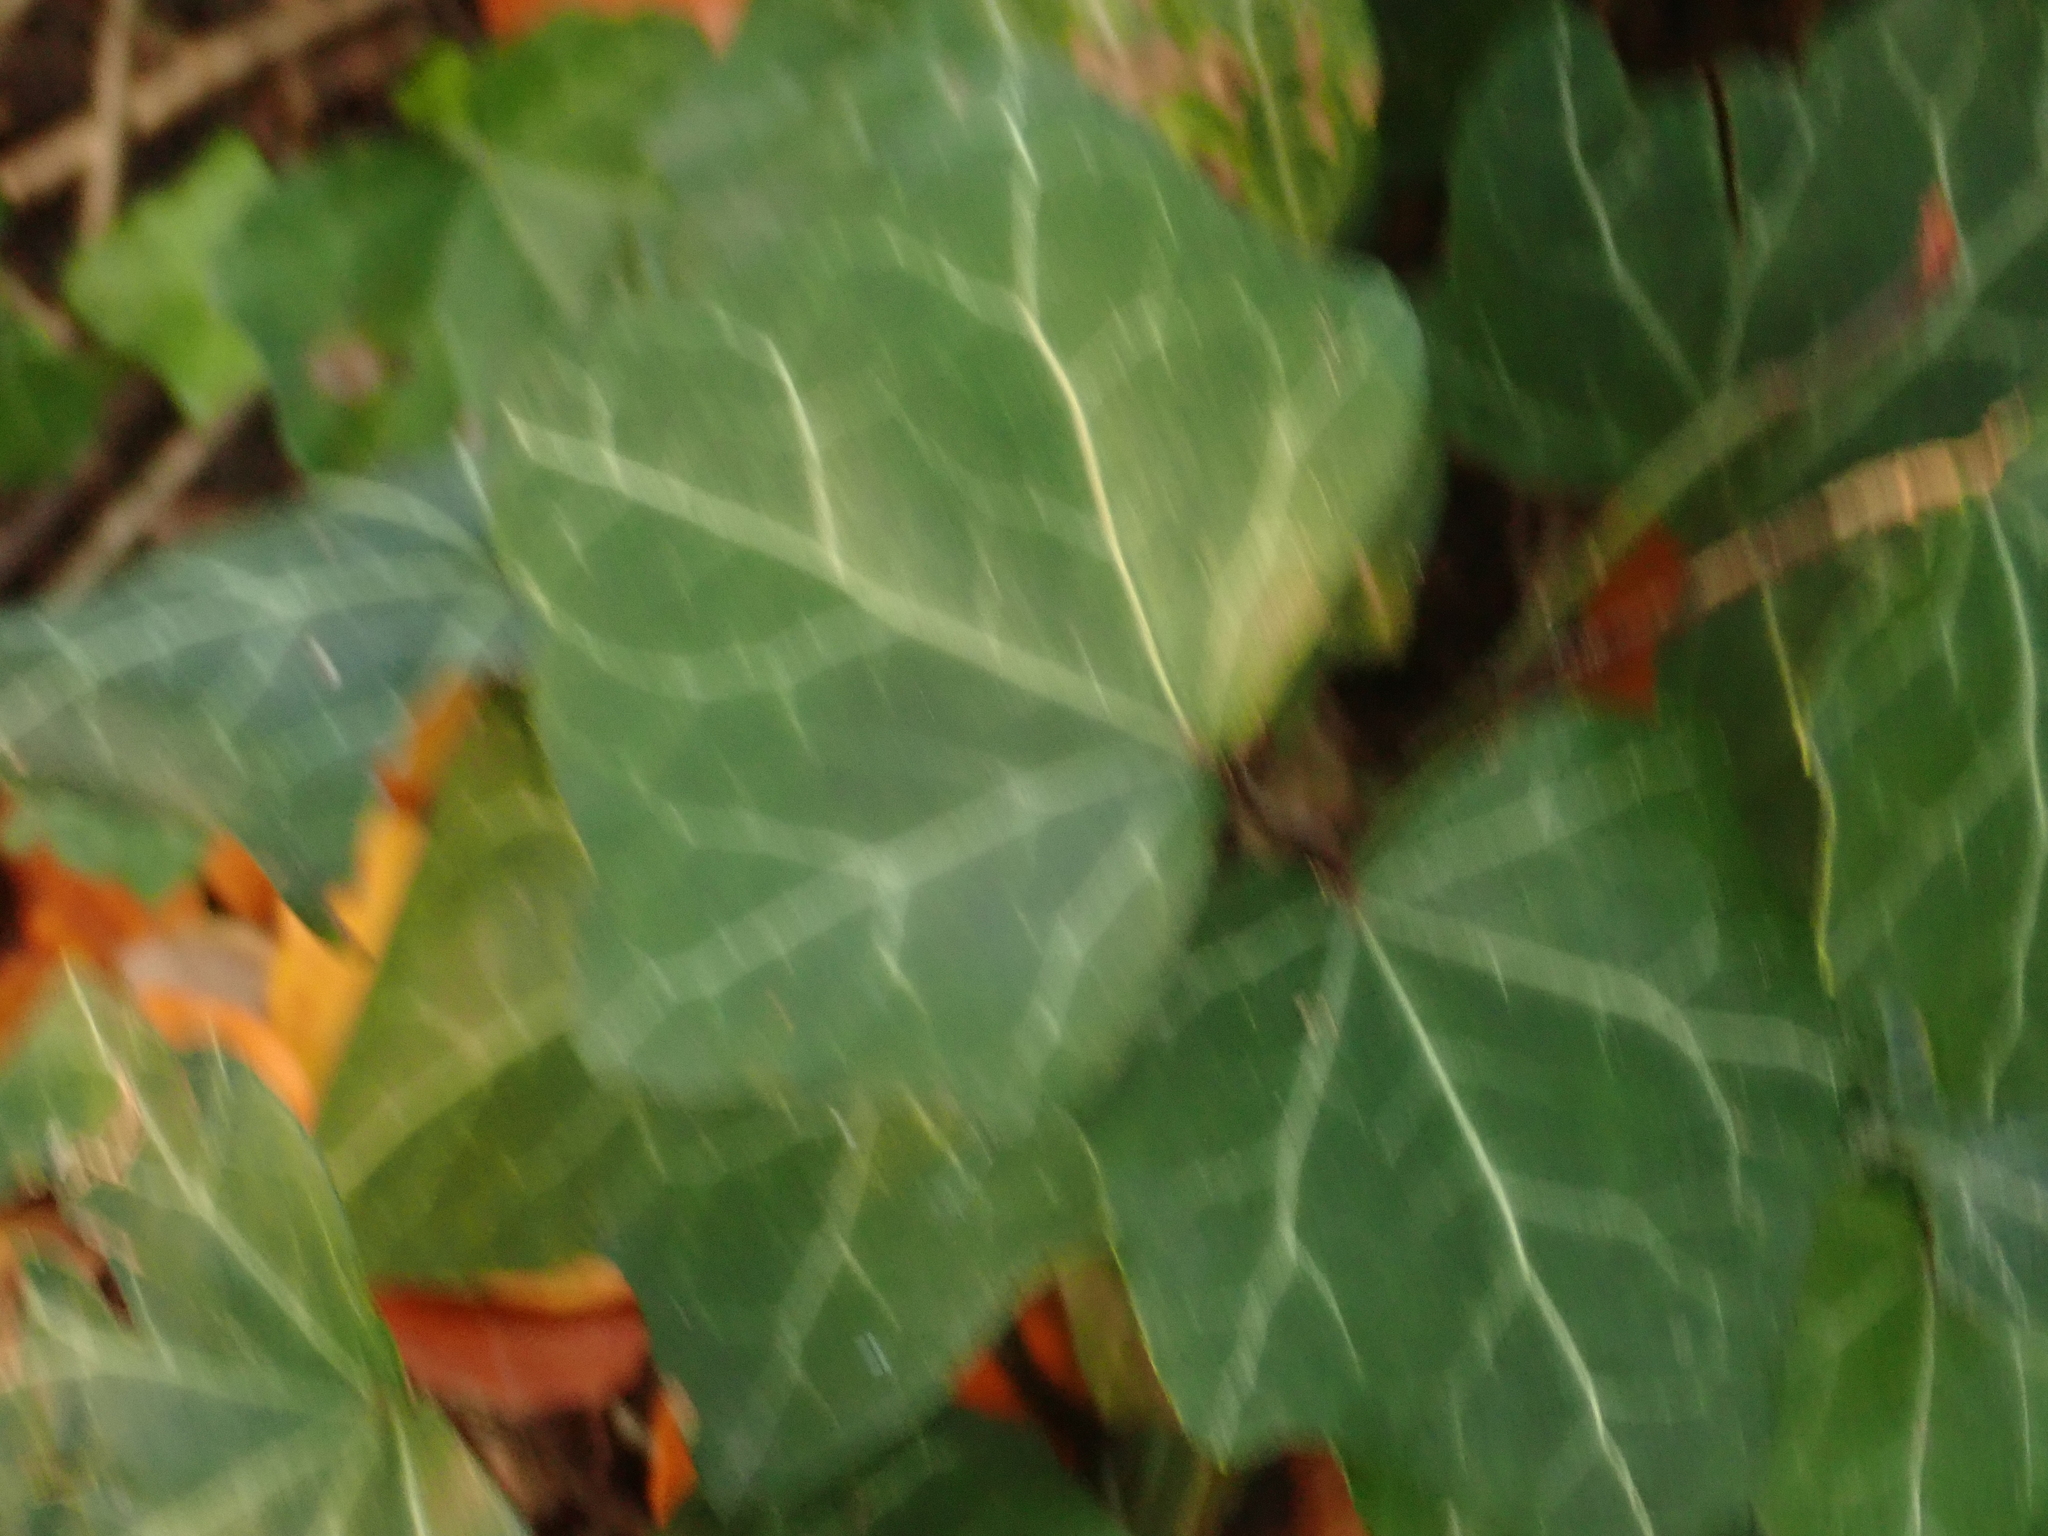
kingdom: Plantae
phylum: Tracheophyta
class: Magnoliopsida
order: Apiales
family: Araliaceae
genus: Hedera
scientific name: Hedera helix
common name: Ivy
